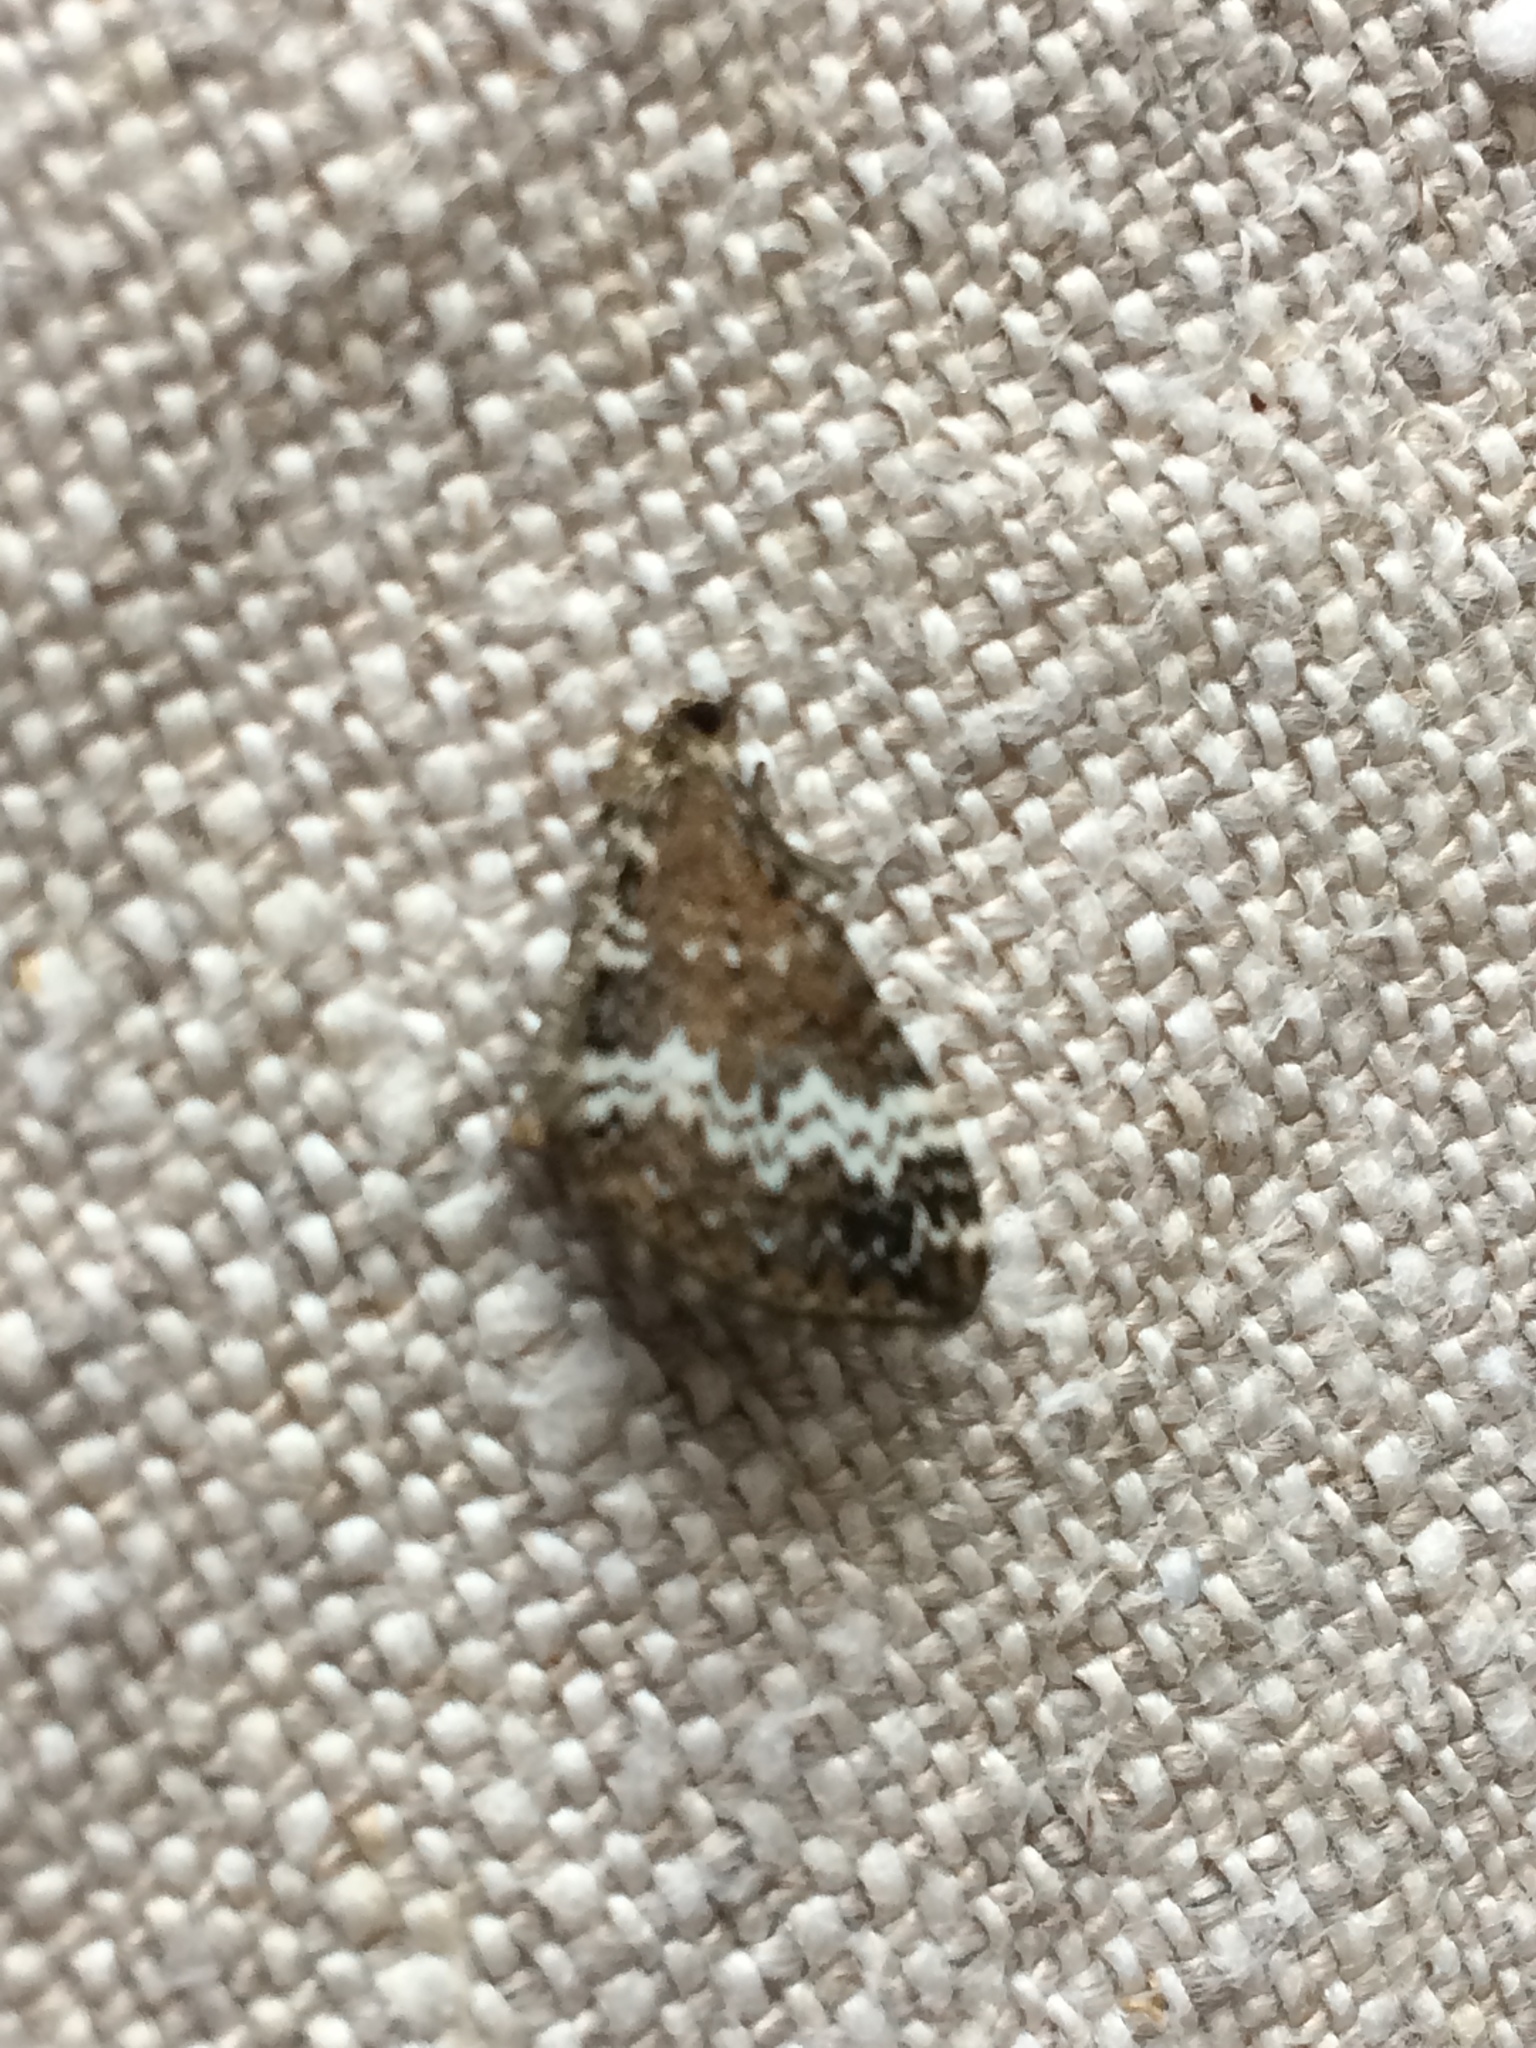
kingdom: Animalia
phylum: Arthropoda
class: Insecta
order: Lepidoptera
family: Geometridae
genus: Perizoma
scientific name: Perizoma alchemillata
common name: Small rivulet
